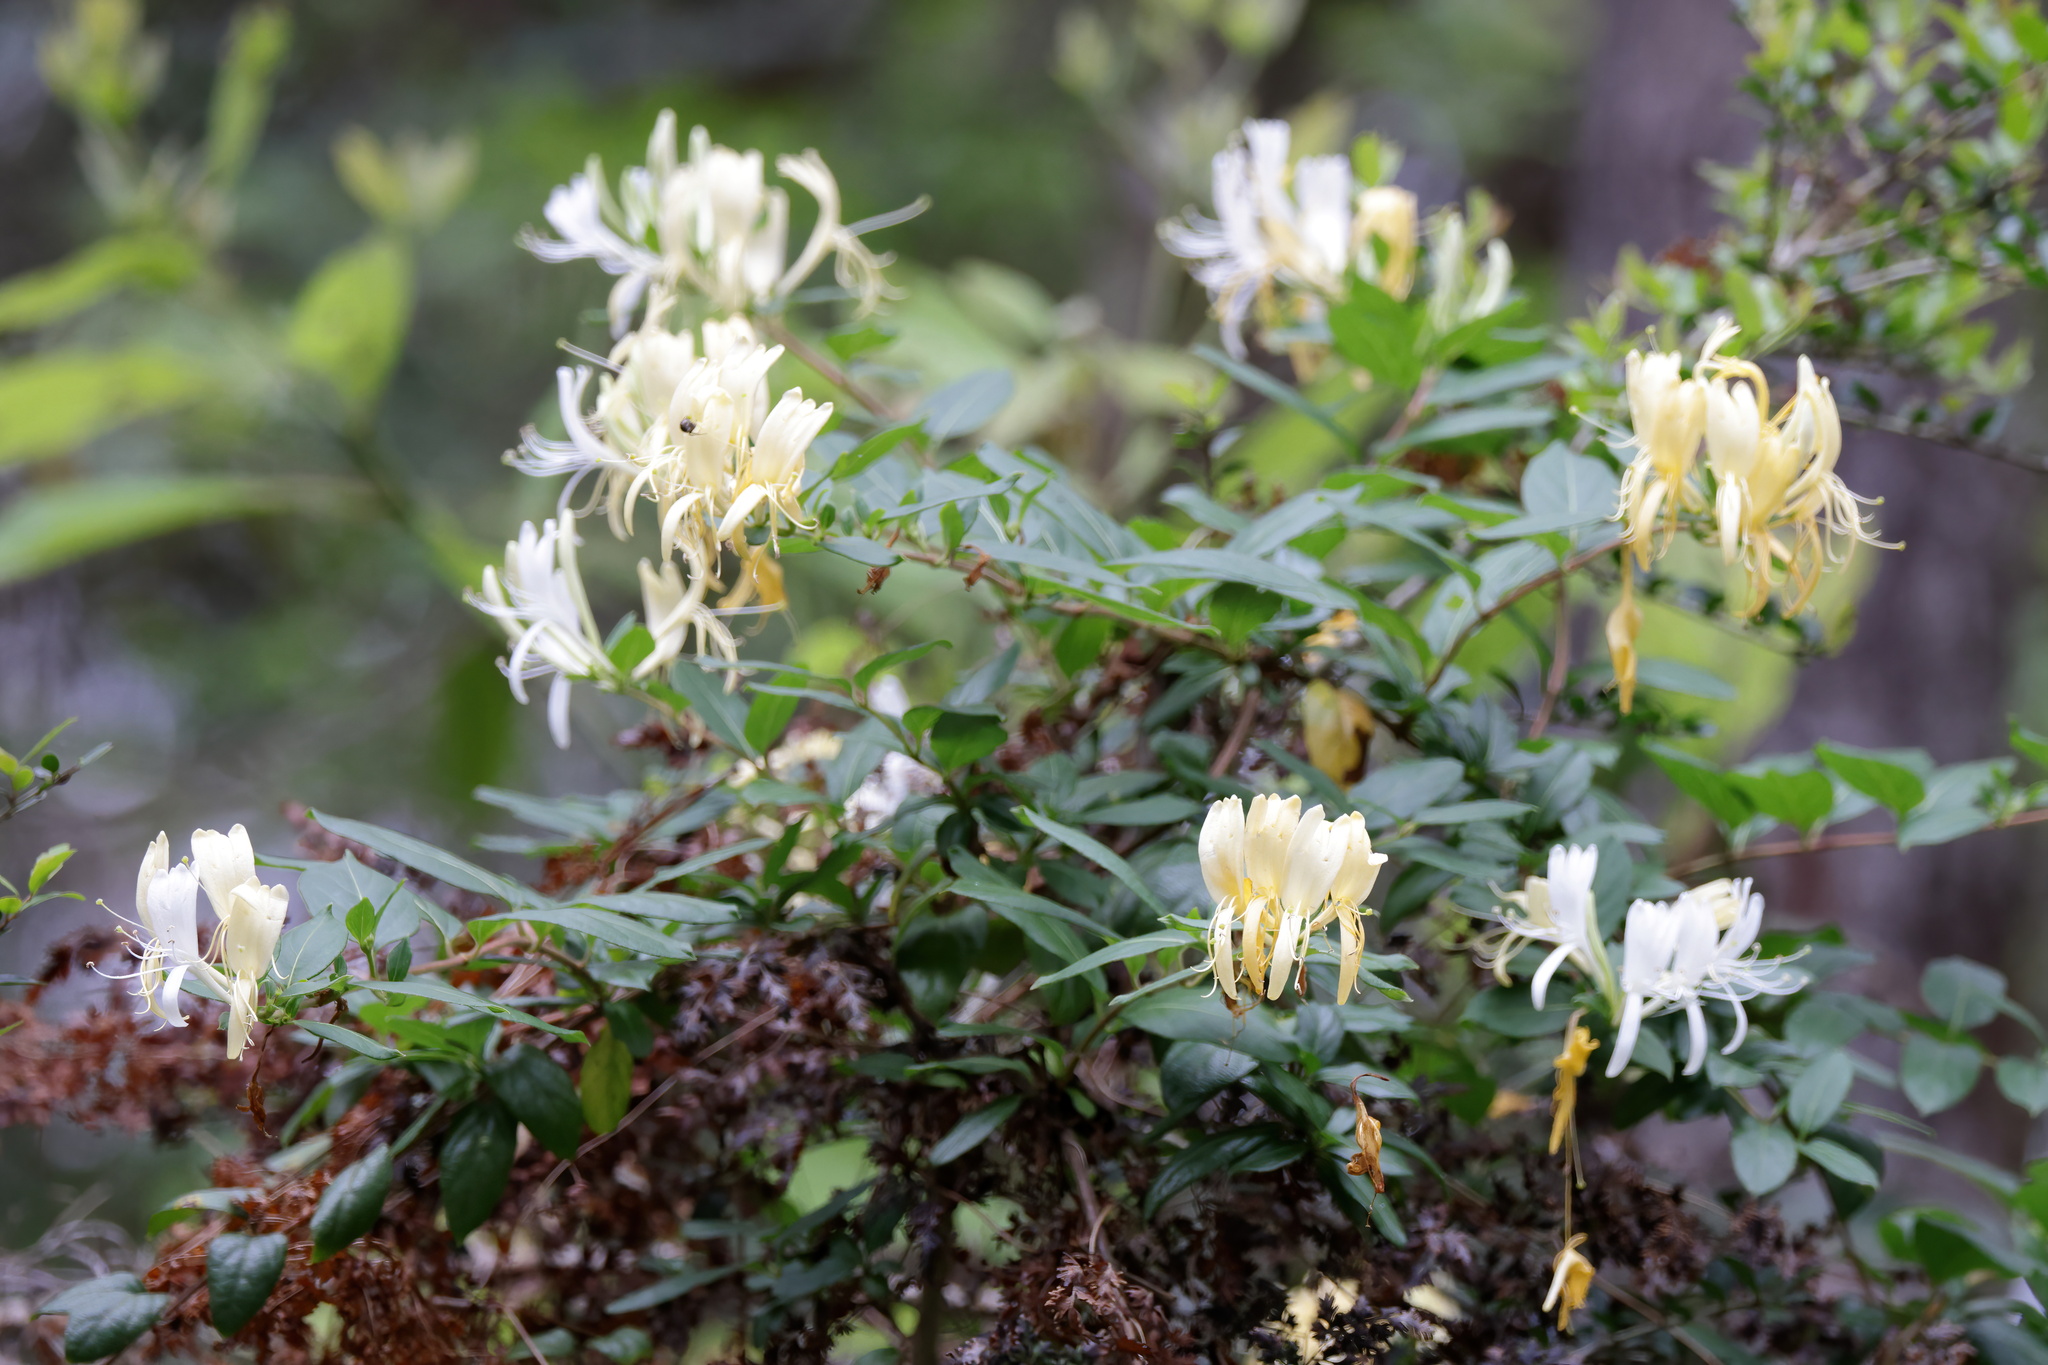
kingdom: Plantae
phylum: Tracheophyta
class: Magnoliopsida
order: Dipsacales
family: Caprifoliaceae
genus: Lonicera
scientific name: Lonicera japonica
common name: Japanese honeysuckle
